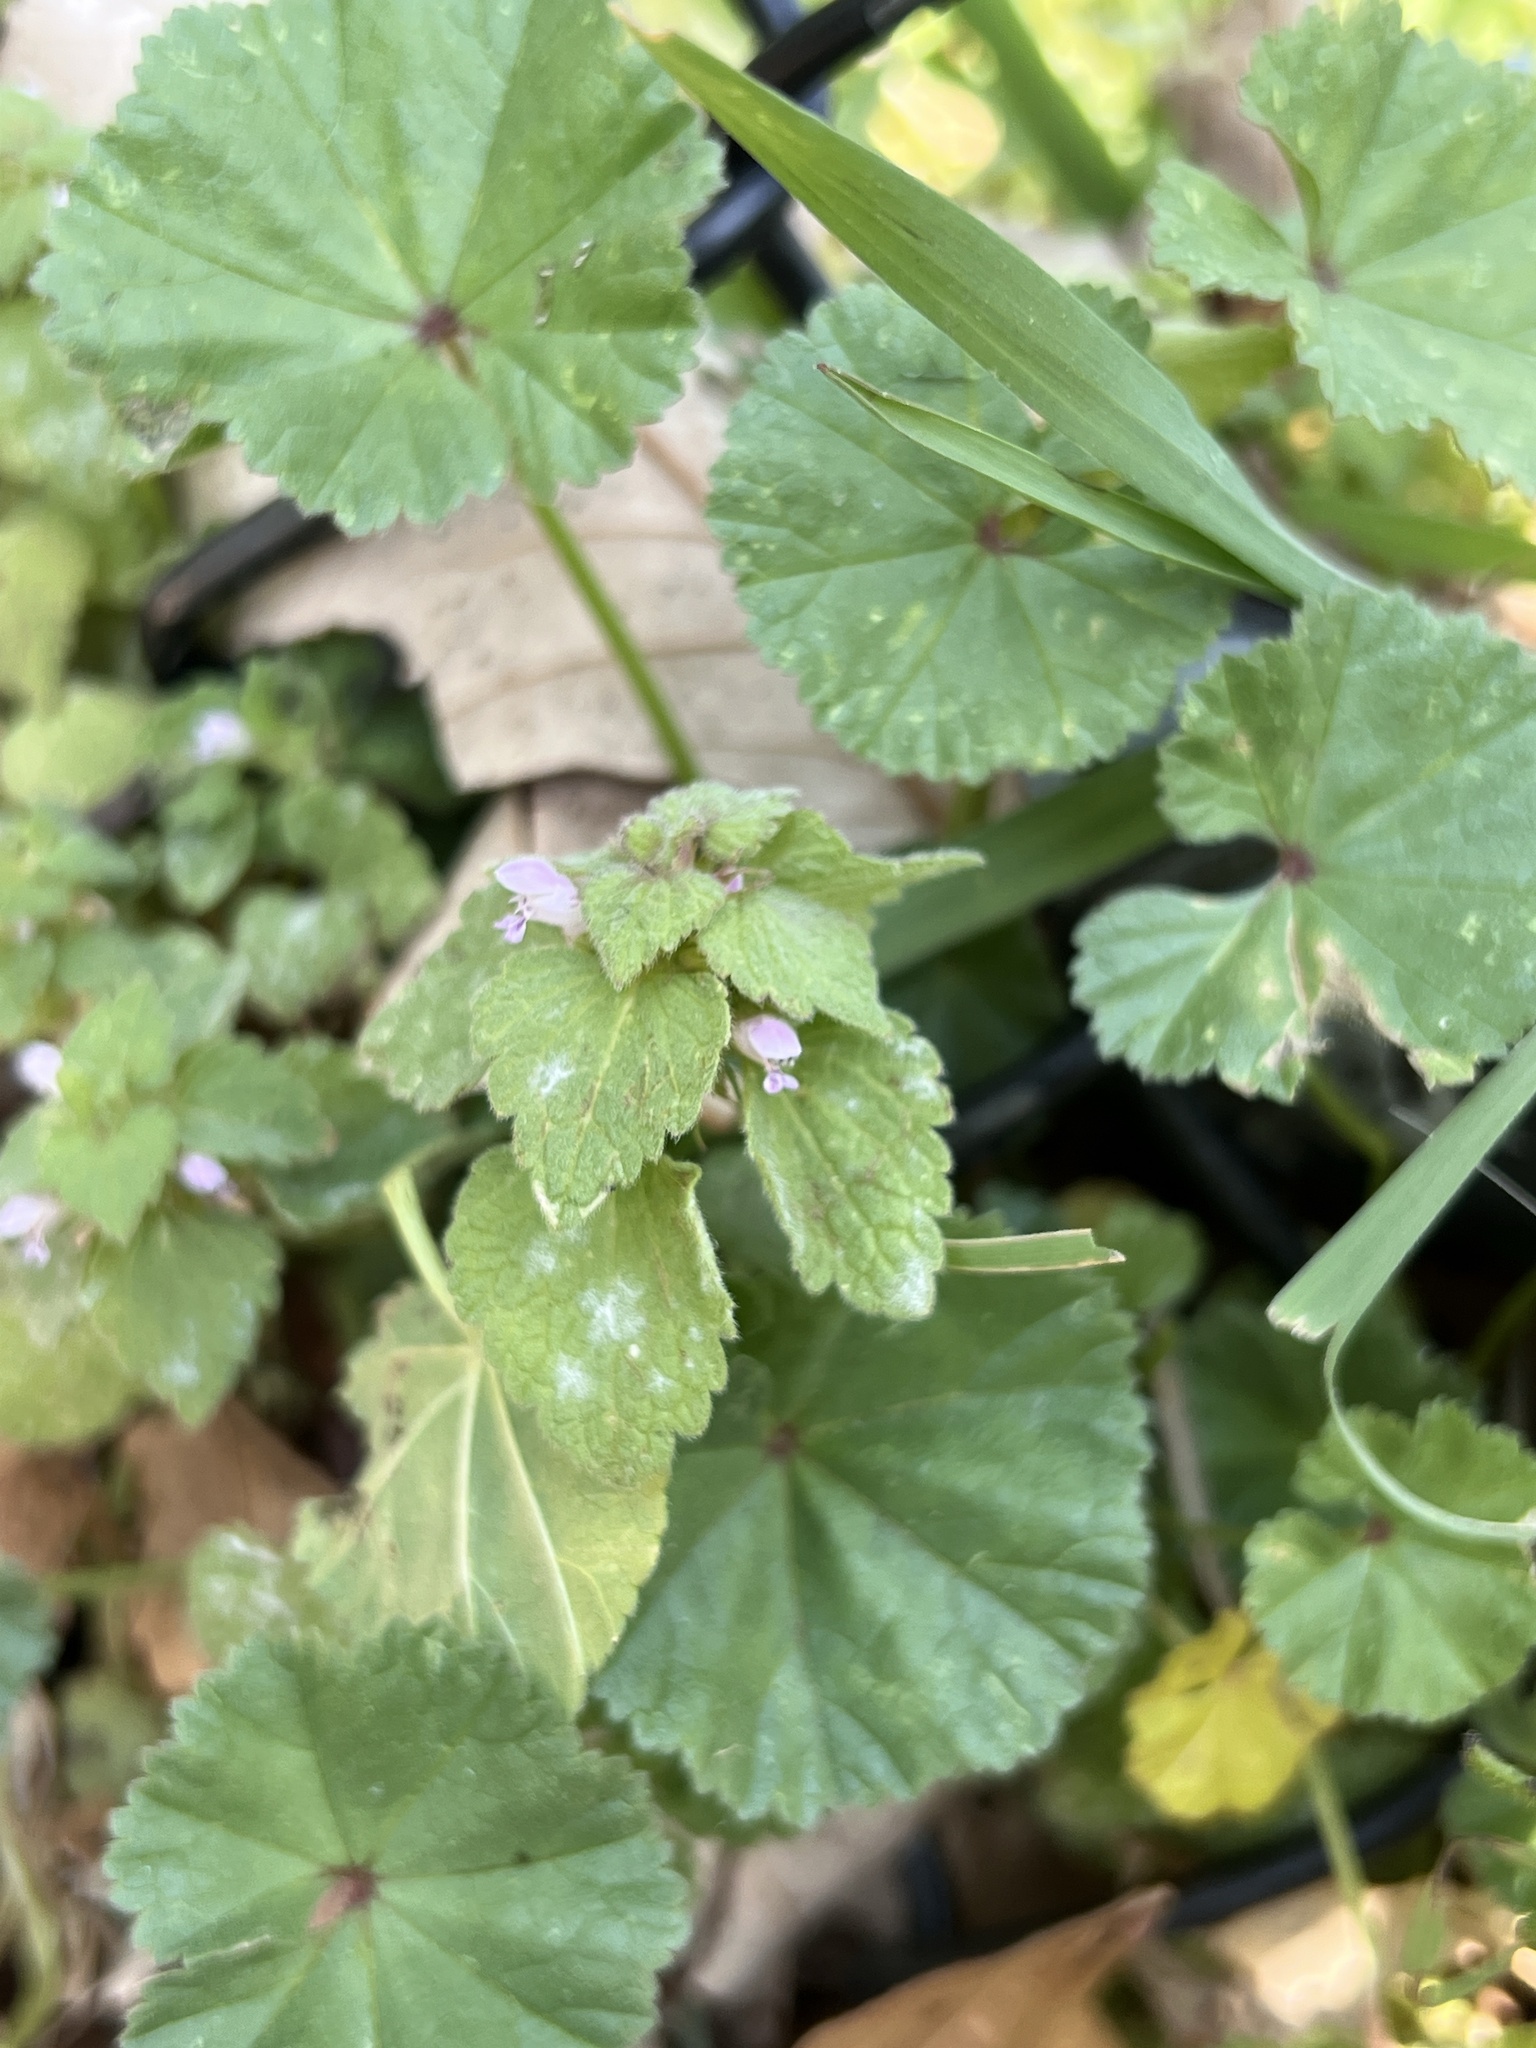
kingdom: Plantae
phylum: Tracheophyta
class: Magnoliopsida
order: Lamiales
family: Lamiaceae
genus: Lamium
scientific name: Lamium purpureum
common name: Red dead-nettle
